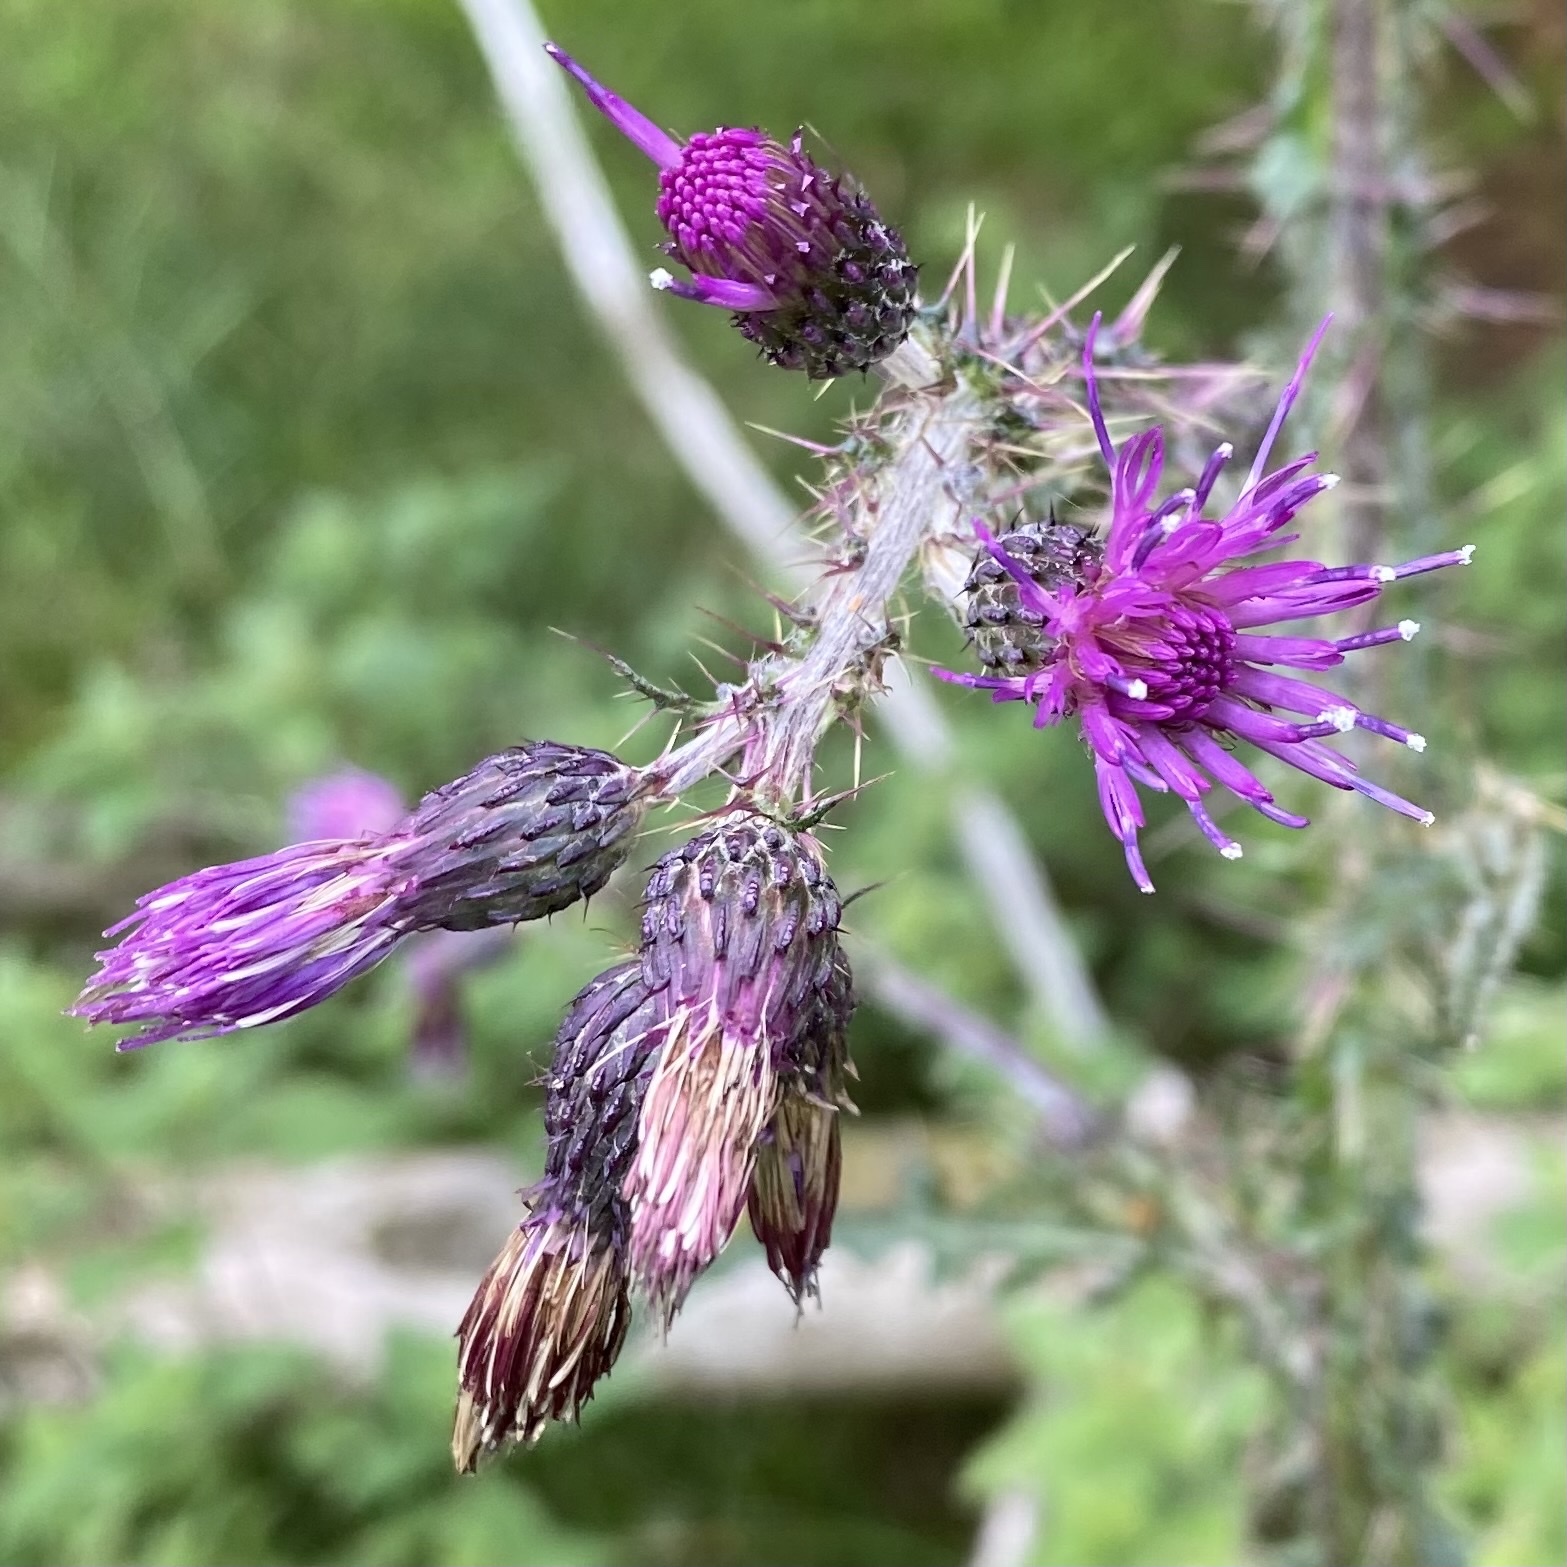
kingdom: Plantae
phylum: Tracheophyta
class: Magnoliopsida
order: Asterales
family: Asteraceae
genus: Cirsium
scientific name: Cirsium palustre
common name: Marsh thistle
